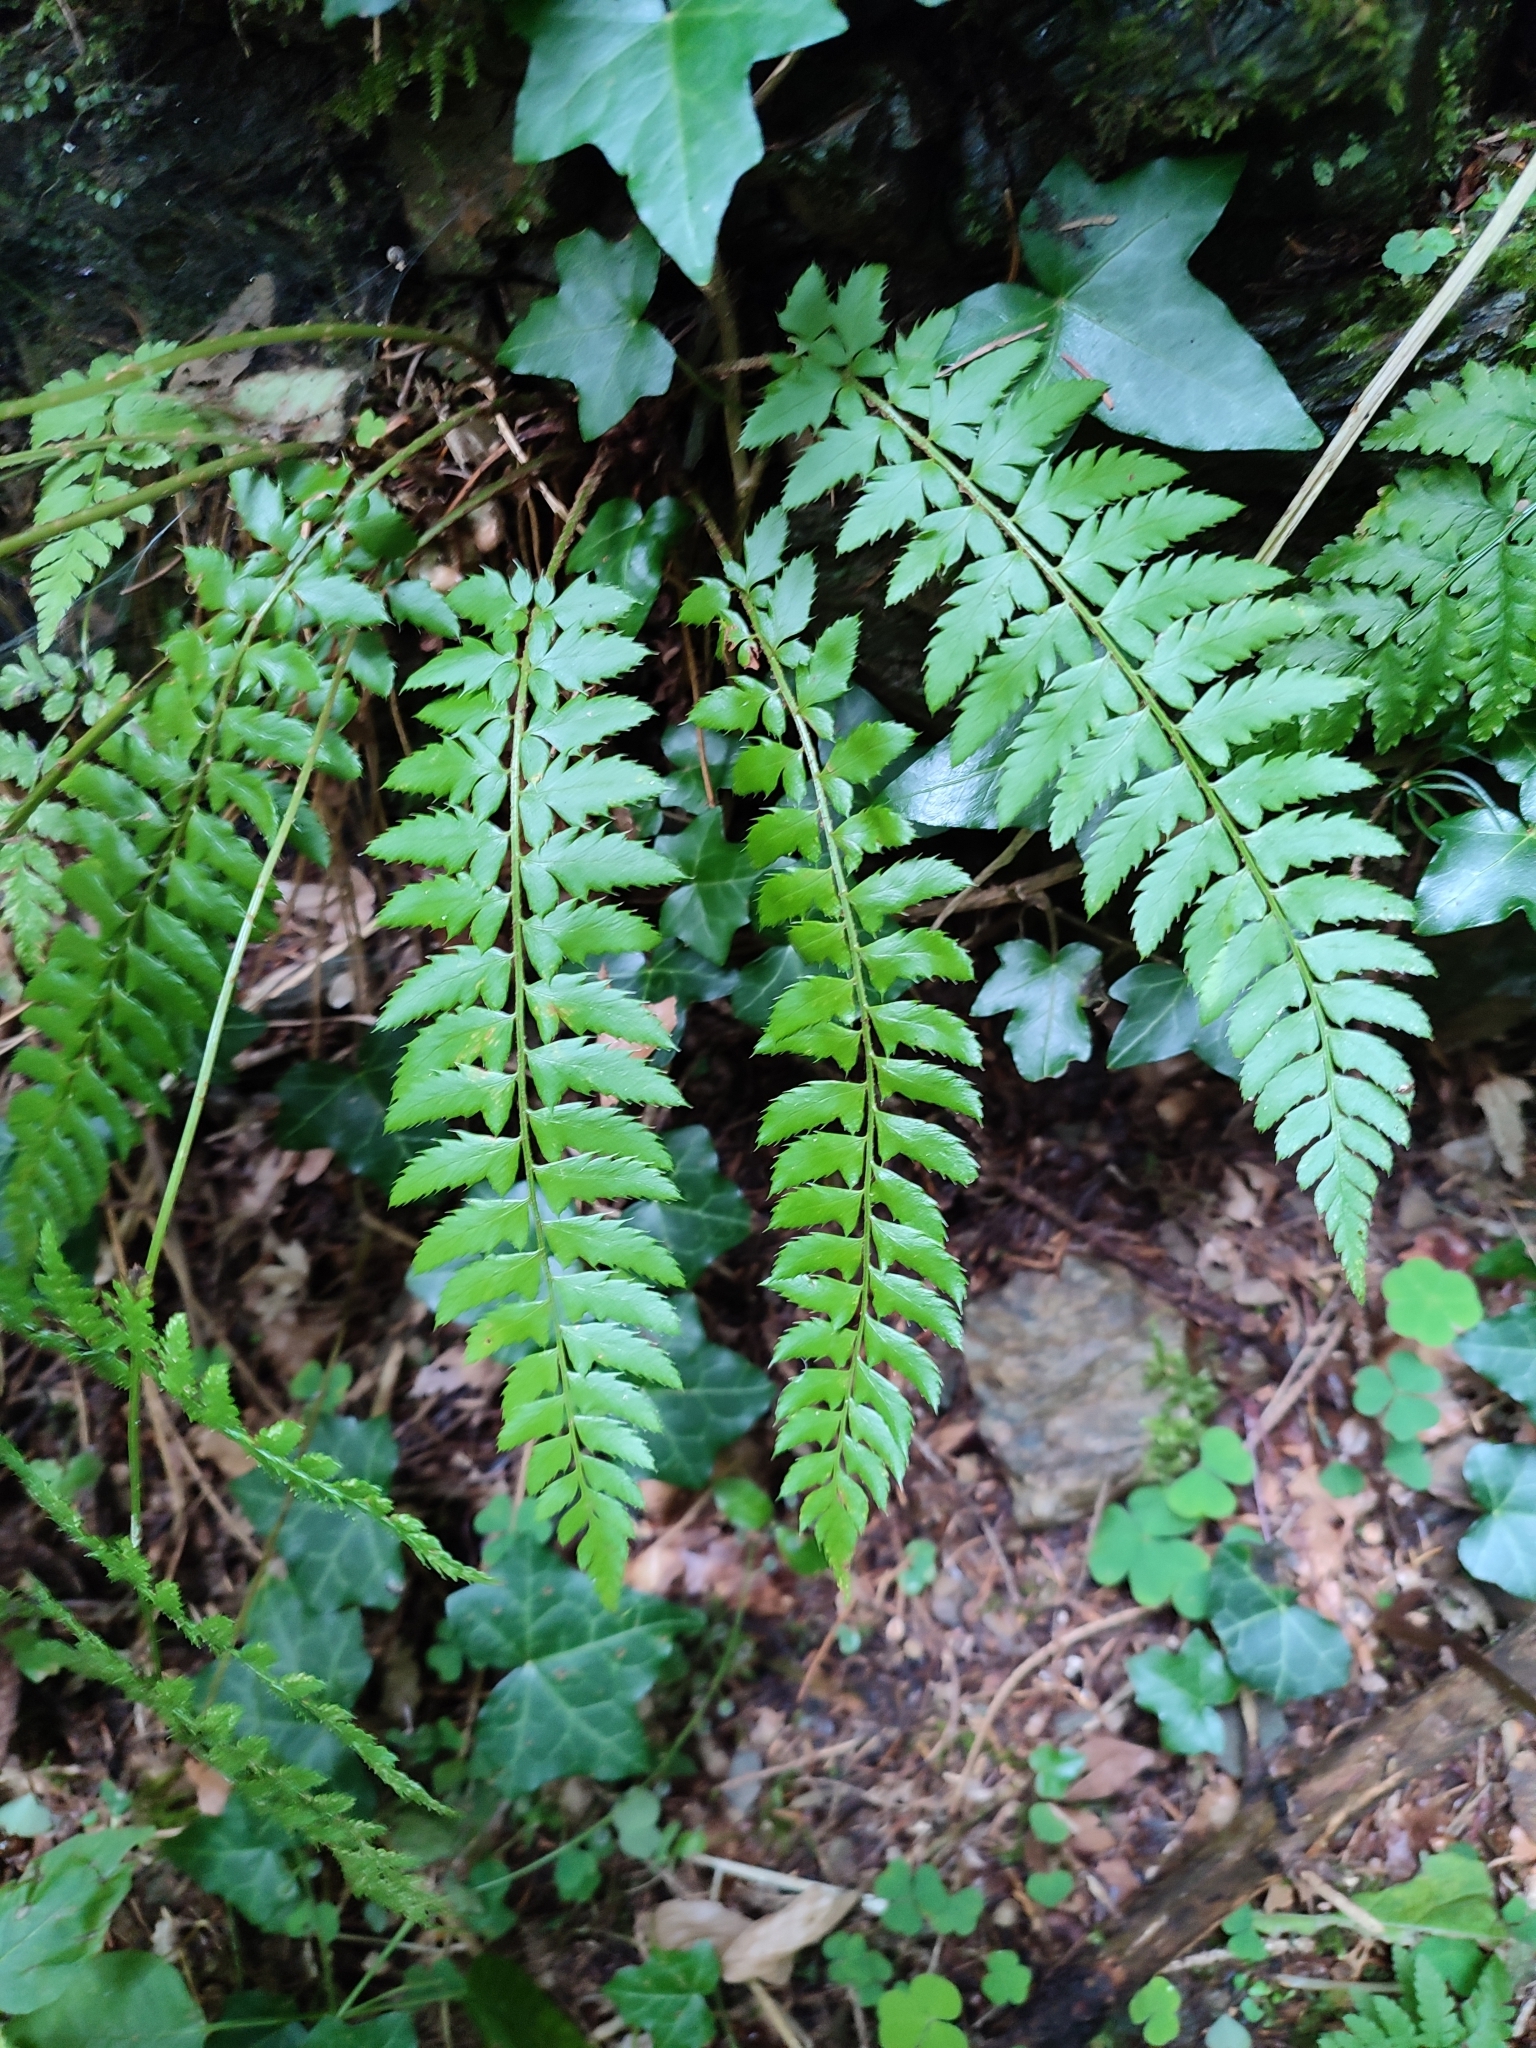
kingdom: Plantae
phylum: Tracheophyta
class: Polypodiopsida
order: Polypodiales
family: Dryopteridaceae
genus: Polystichum
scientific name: Polystichum aculeatum
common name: Hard shield-fern
